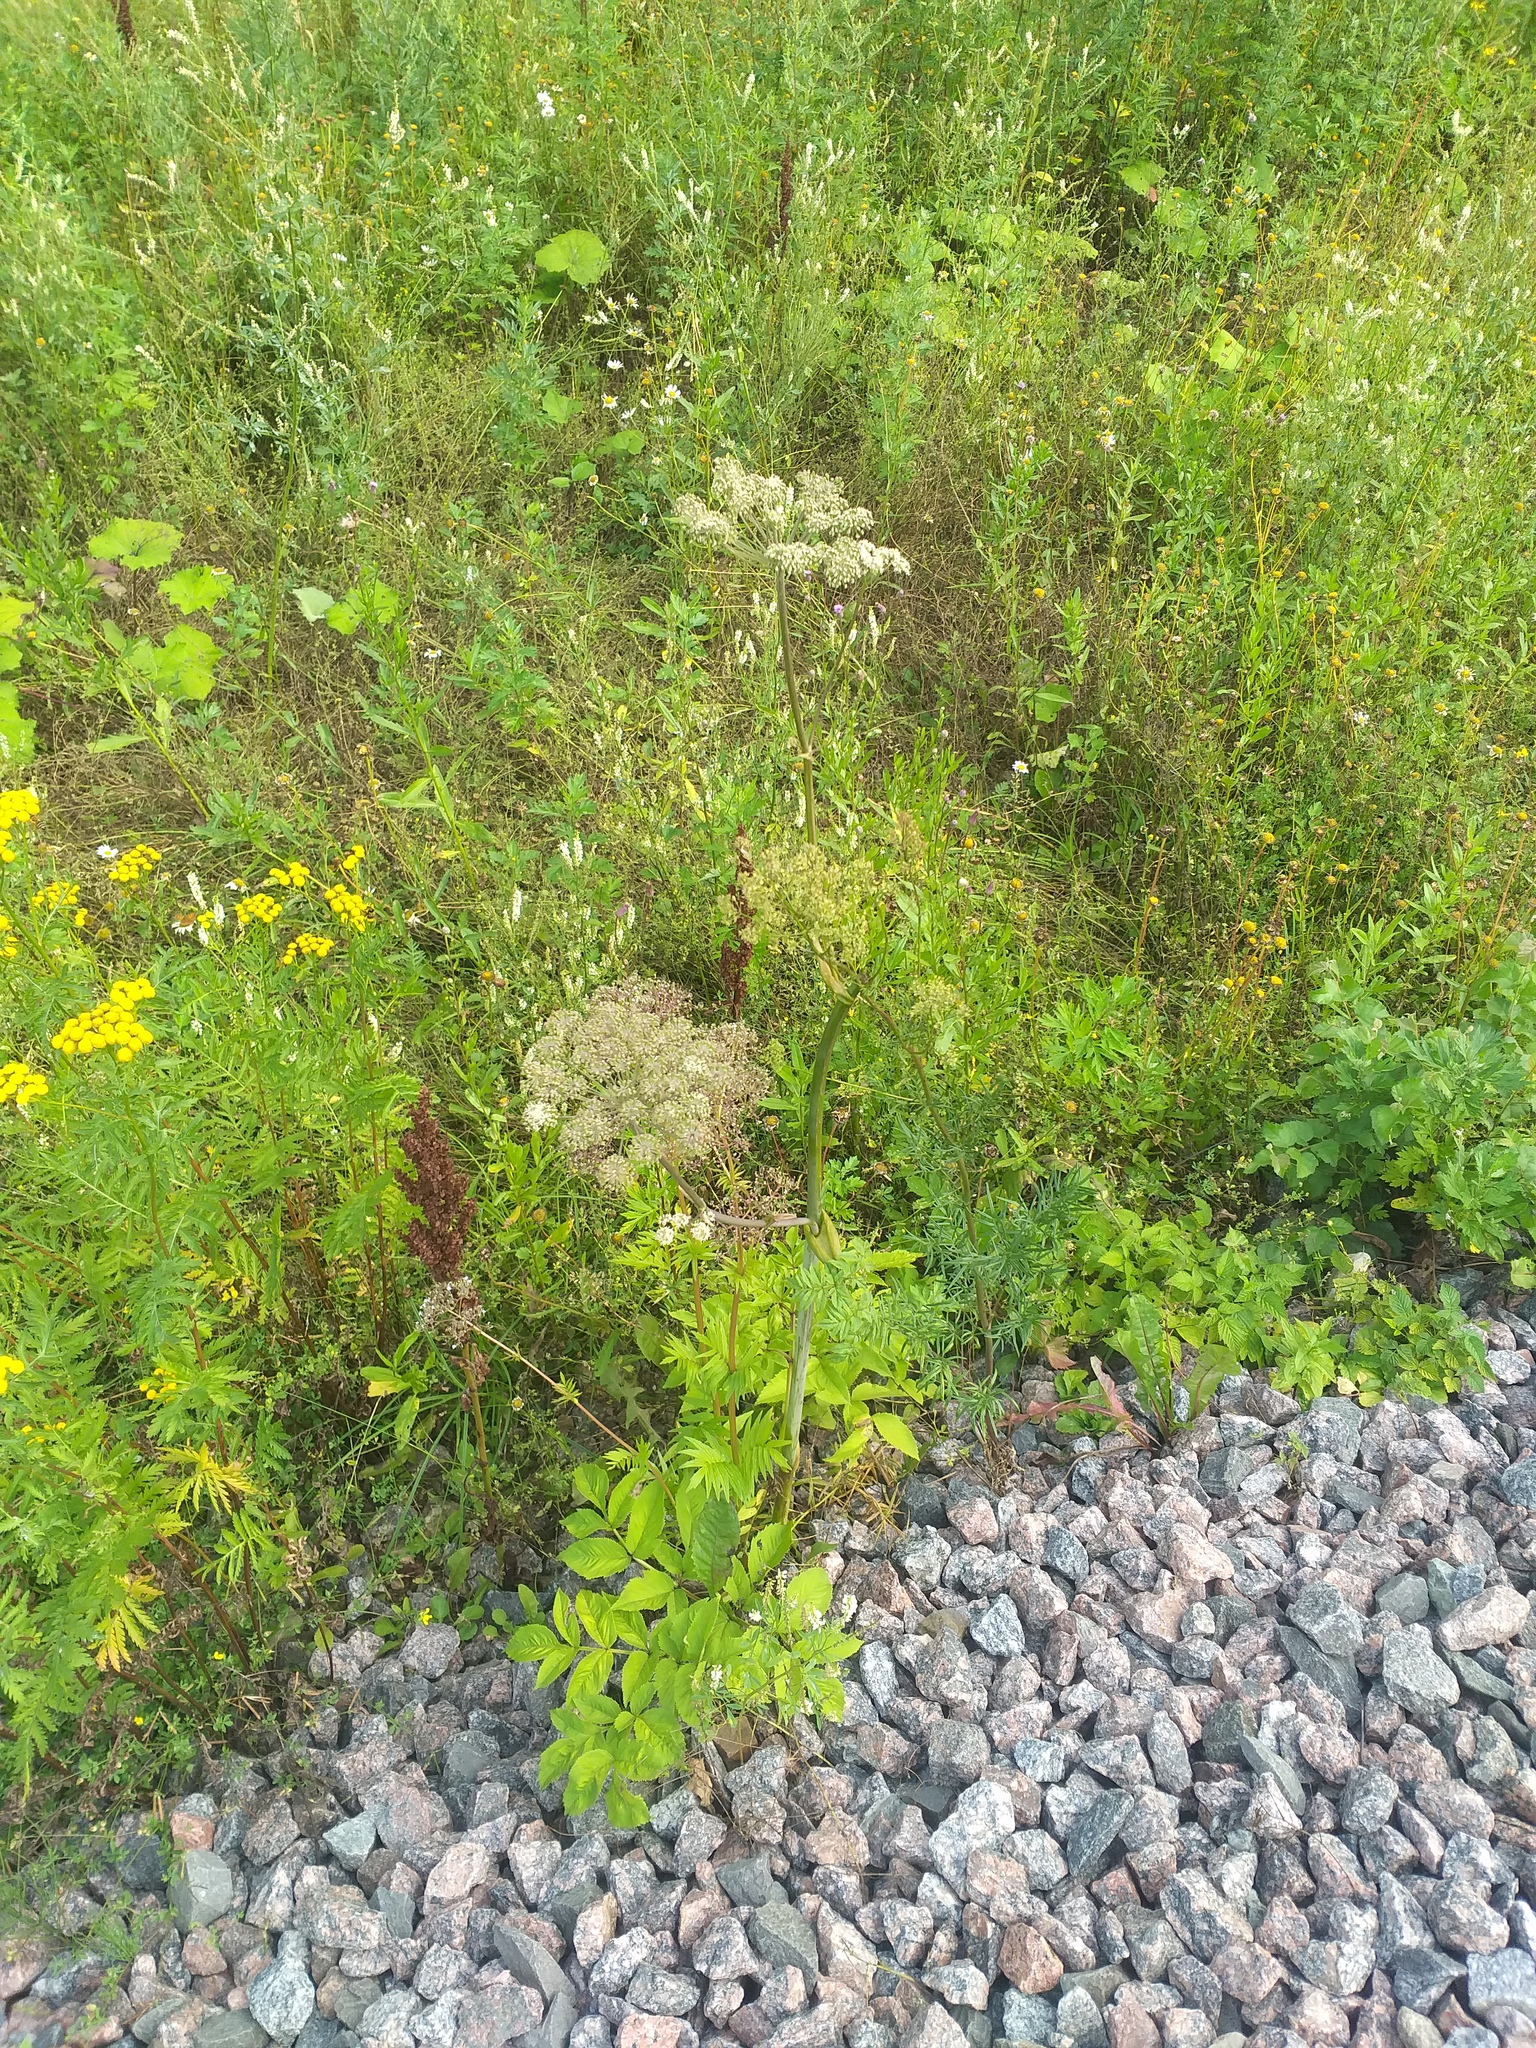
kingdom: Plantae
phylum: Tracheophyta
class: Magnoliopsida
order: Apiales
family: Apiaceae
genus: Angelica
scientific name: Angelica sylvestris
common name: Wild angelica
